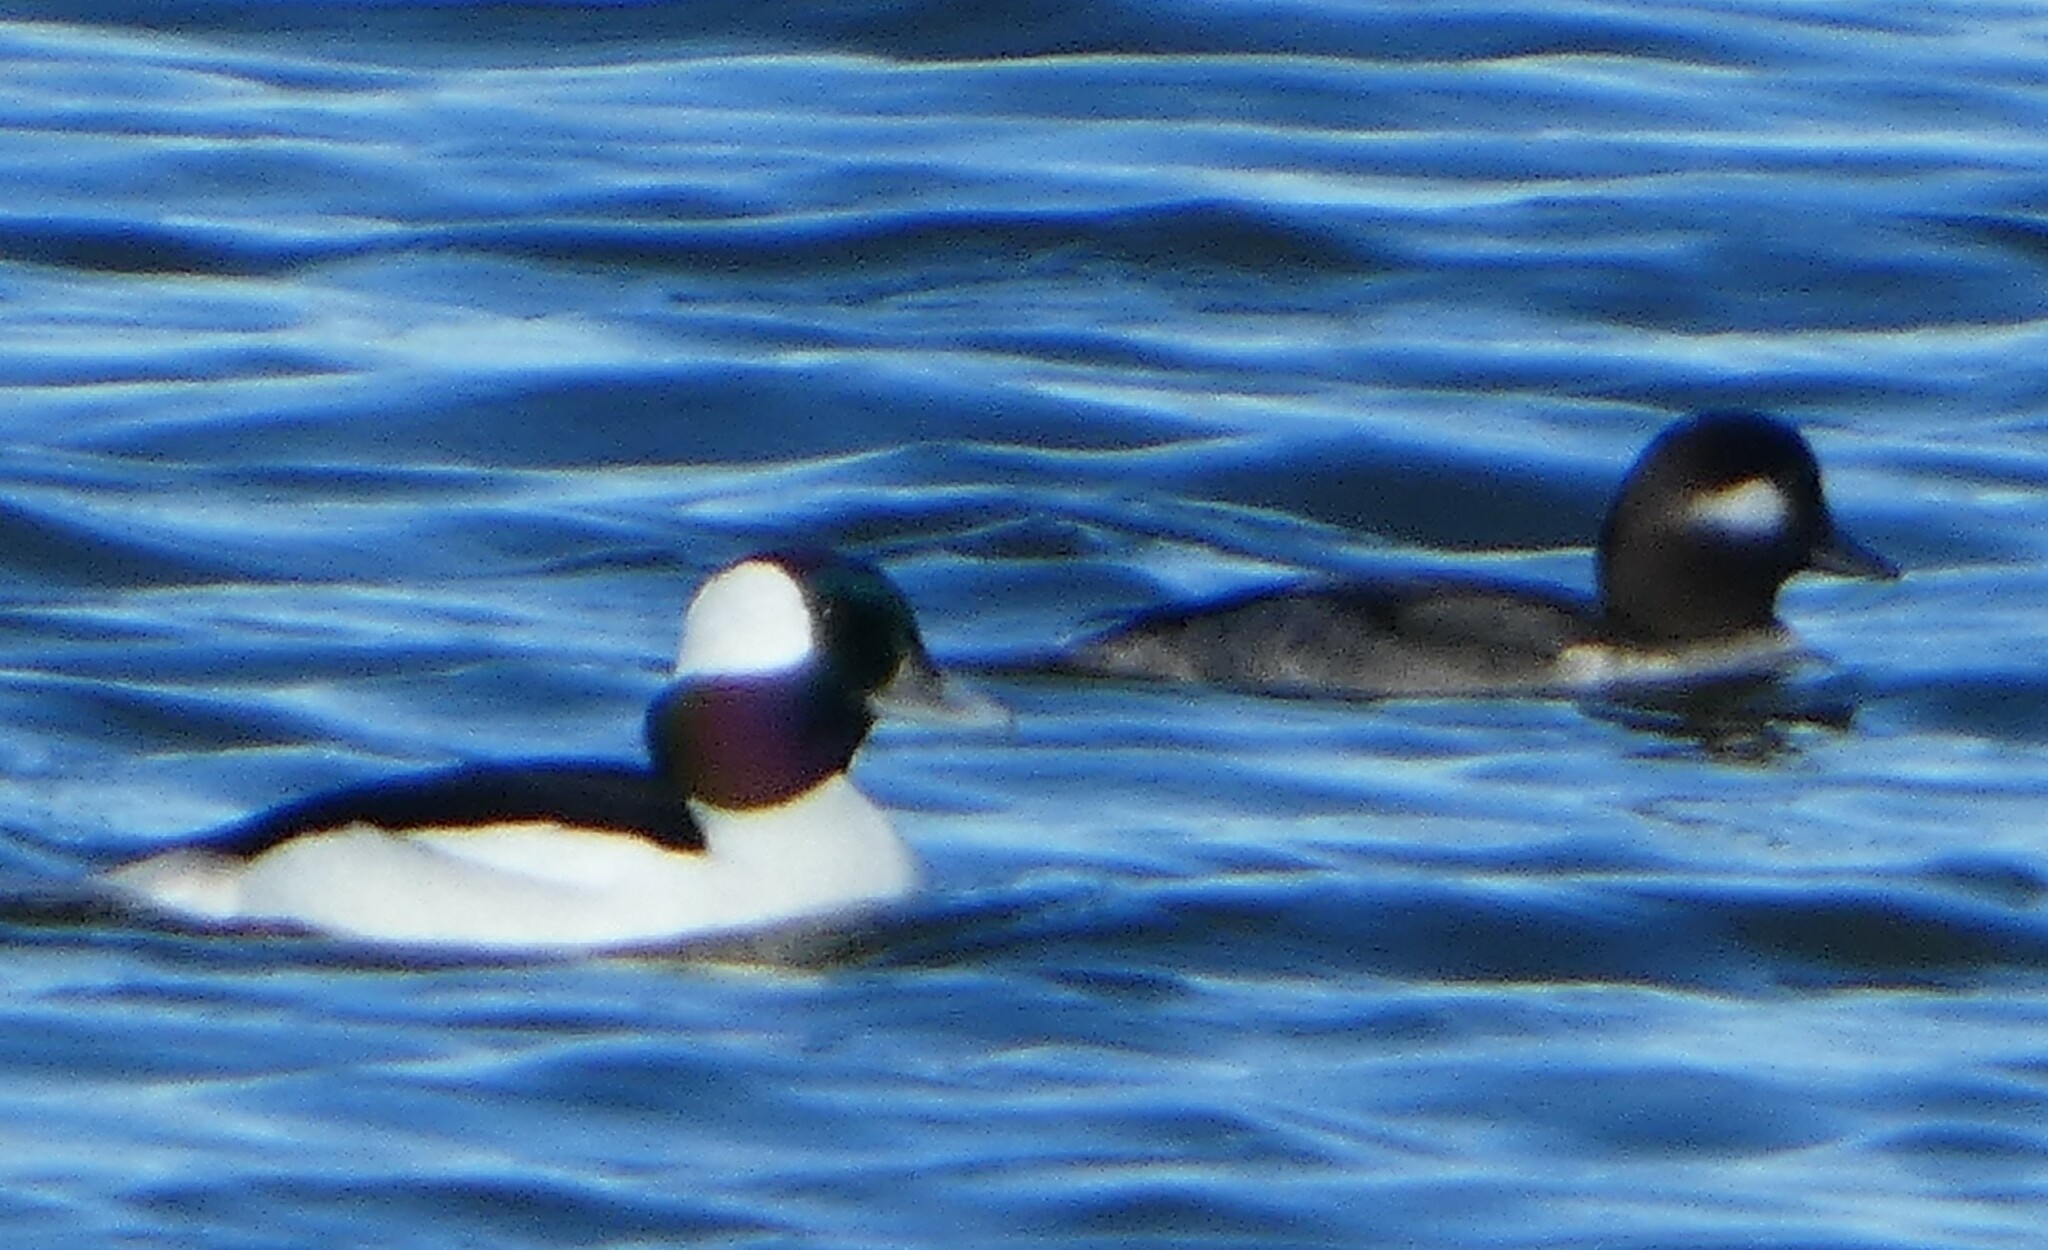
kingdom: Animalia
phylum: Chordata
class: Aves
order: Anseriformes
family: Anatidae
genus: Bucephala
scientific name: Bucephala albeola
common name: Bufflehead
